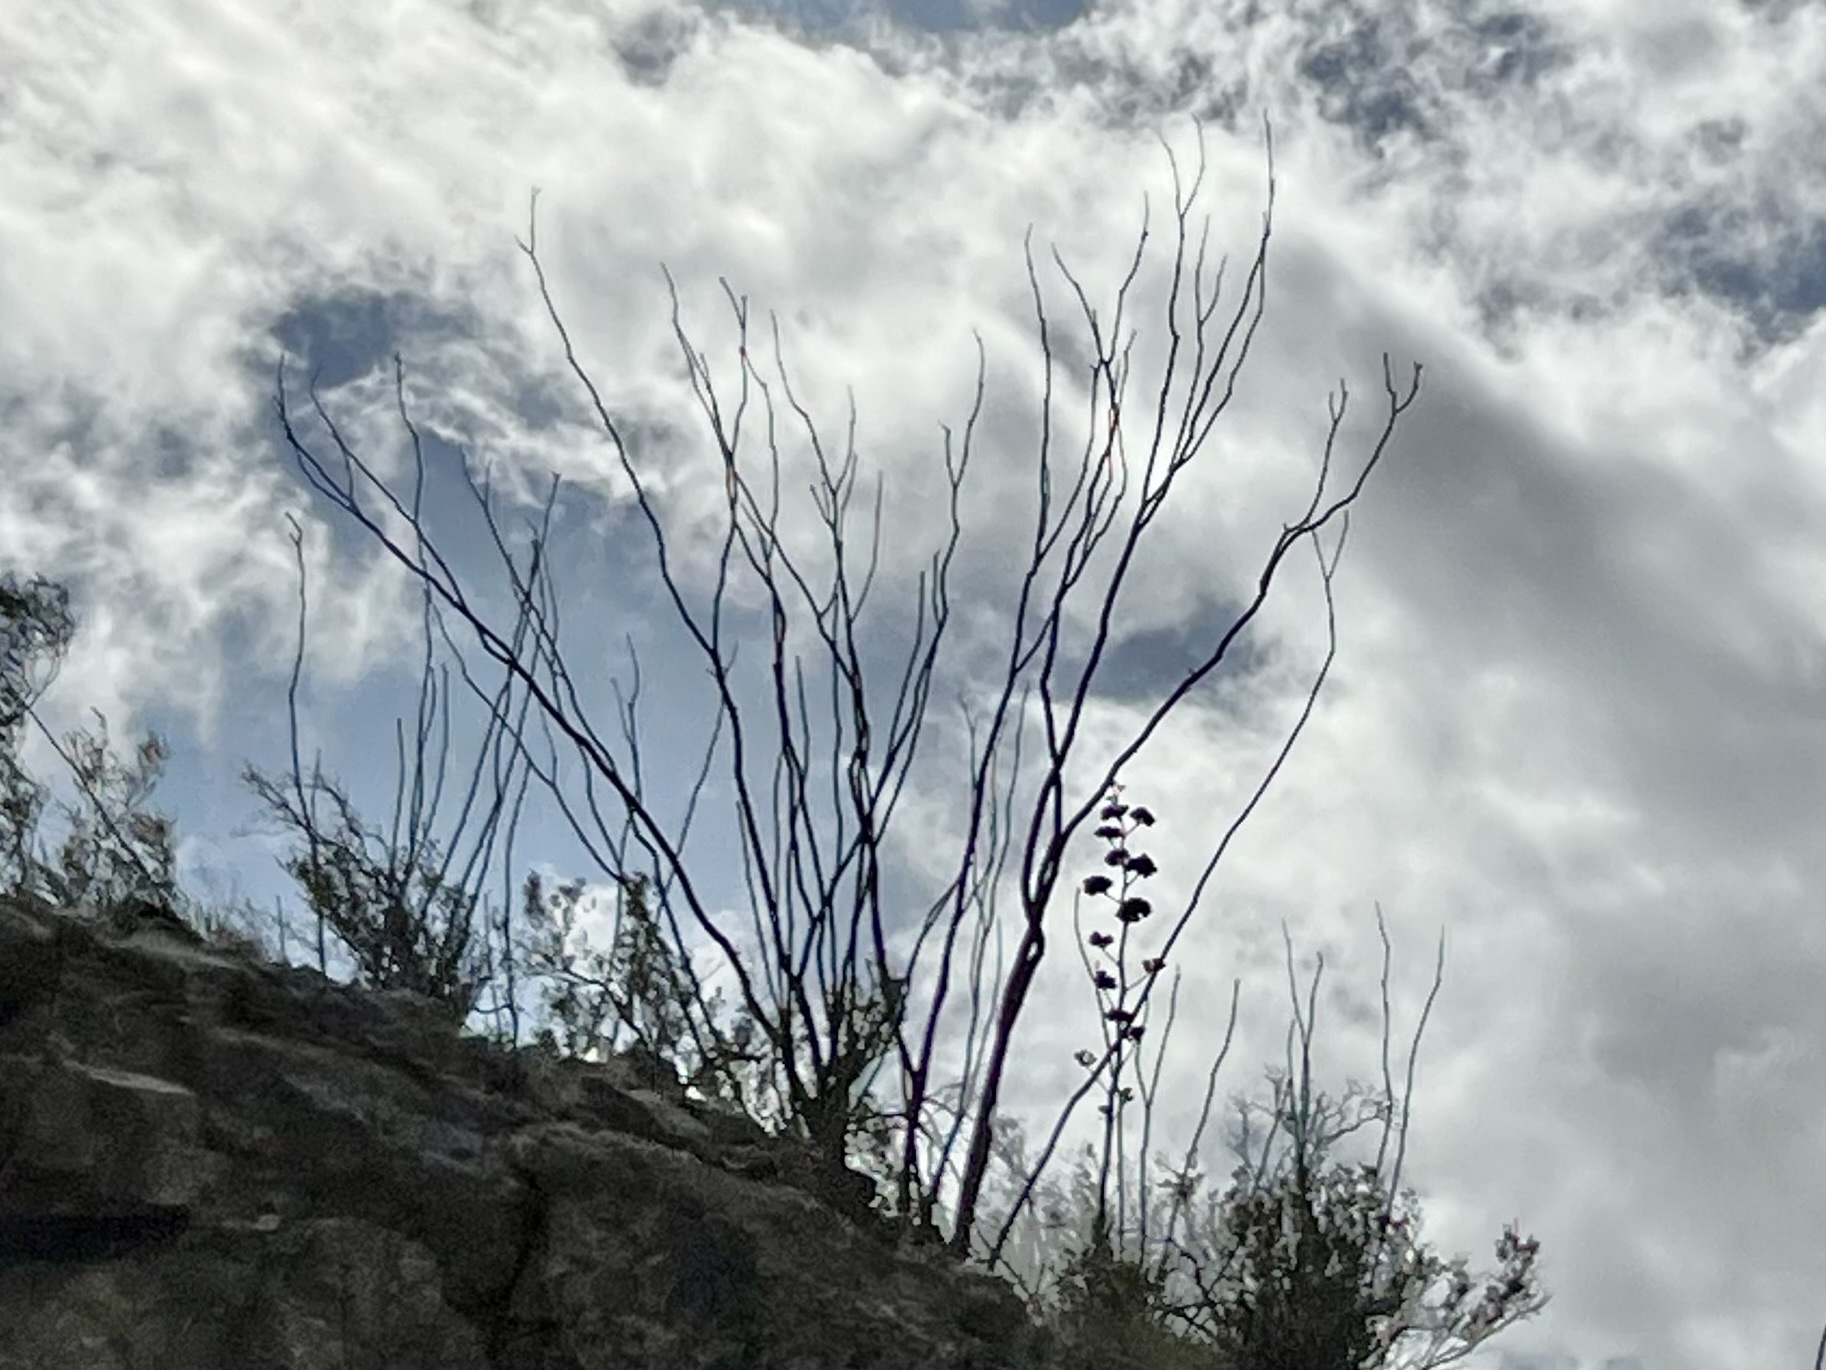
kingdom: Plantae
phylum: Tracheophyta
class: Magnoliopsida
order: Ericales
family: Fouquieriaceae
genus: Fouquieria
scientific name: Fouquieria splendens
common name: Vine-cactus
